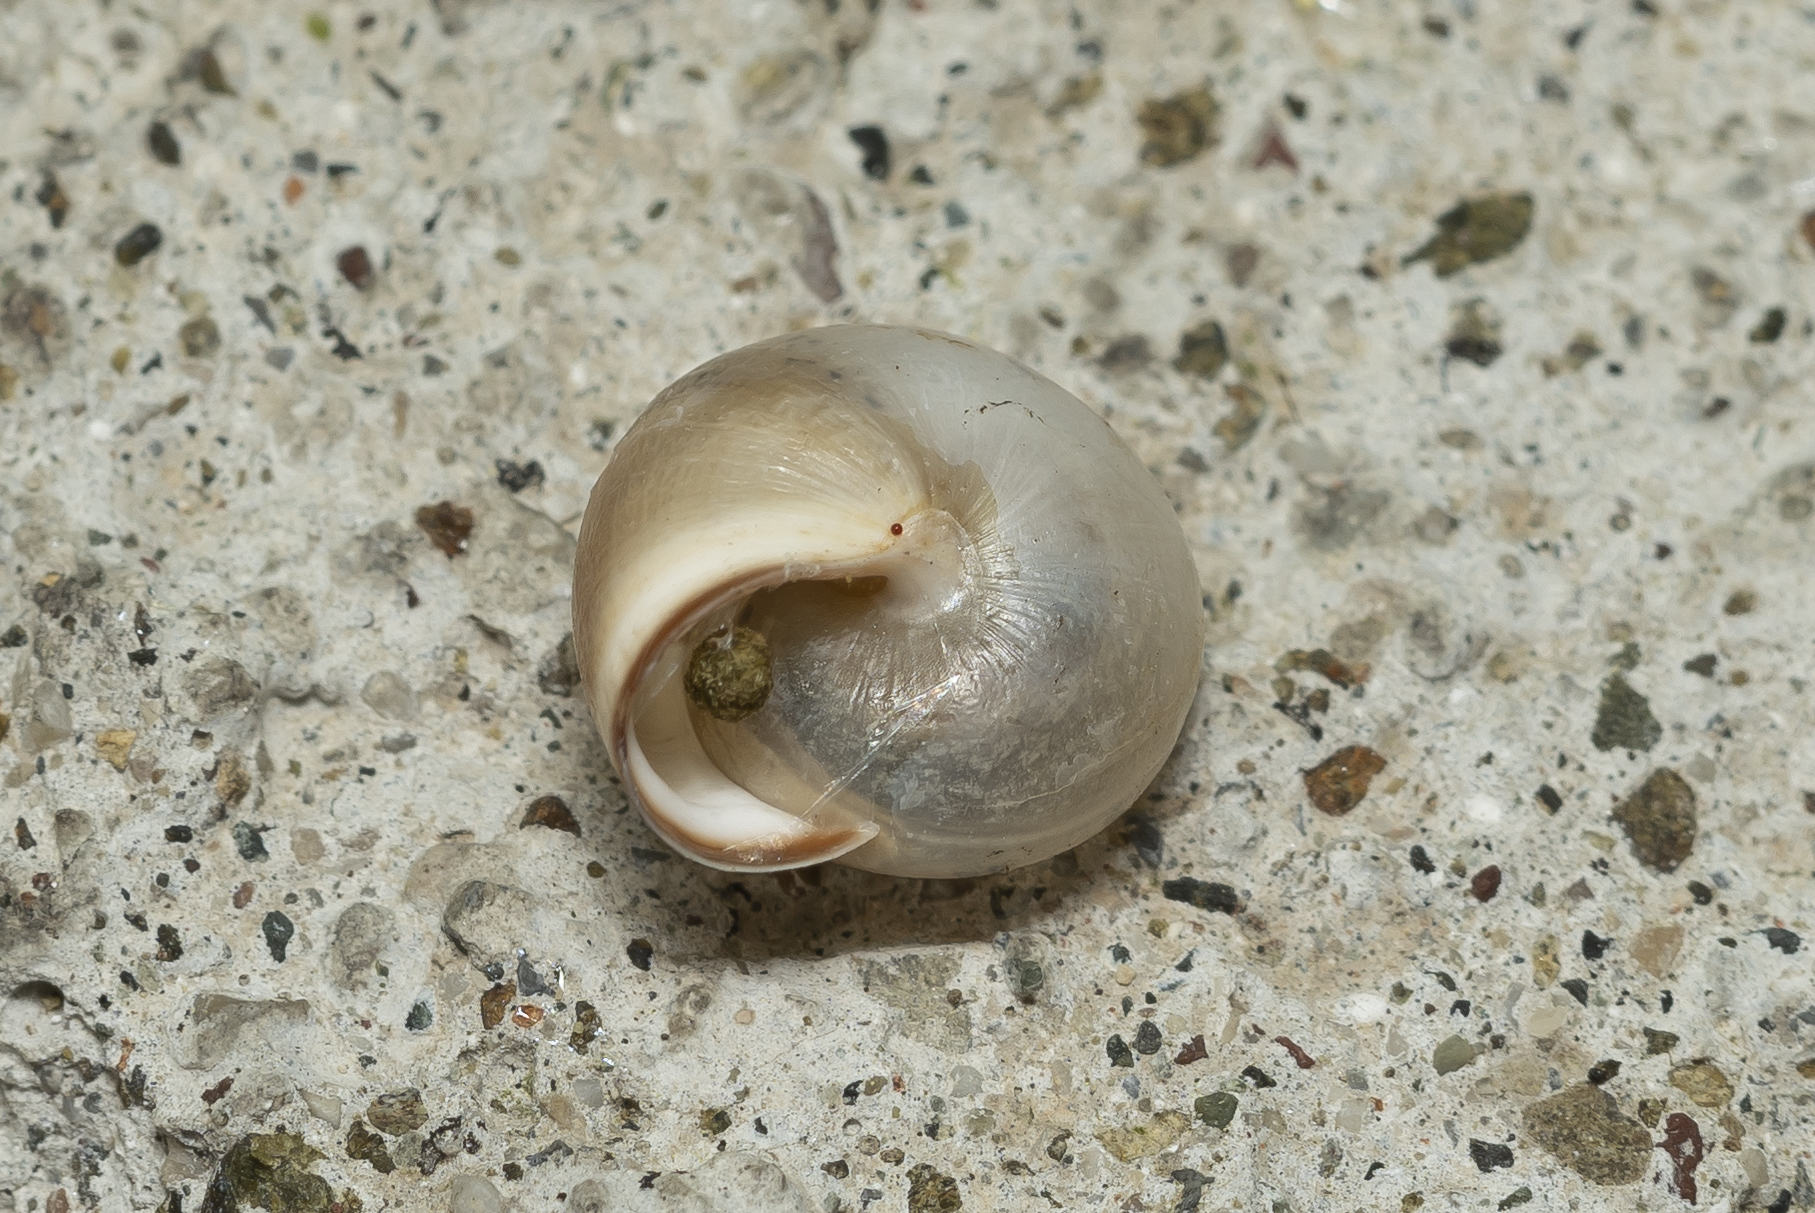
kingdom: Animalia
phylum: Mollusca
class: Gastropoda
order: Stylommatophora
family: Hygromiidae
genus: Monacha
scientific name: Monacha syriaca
